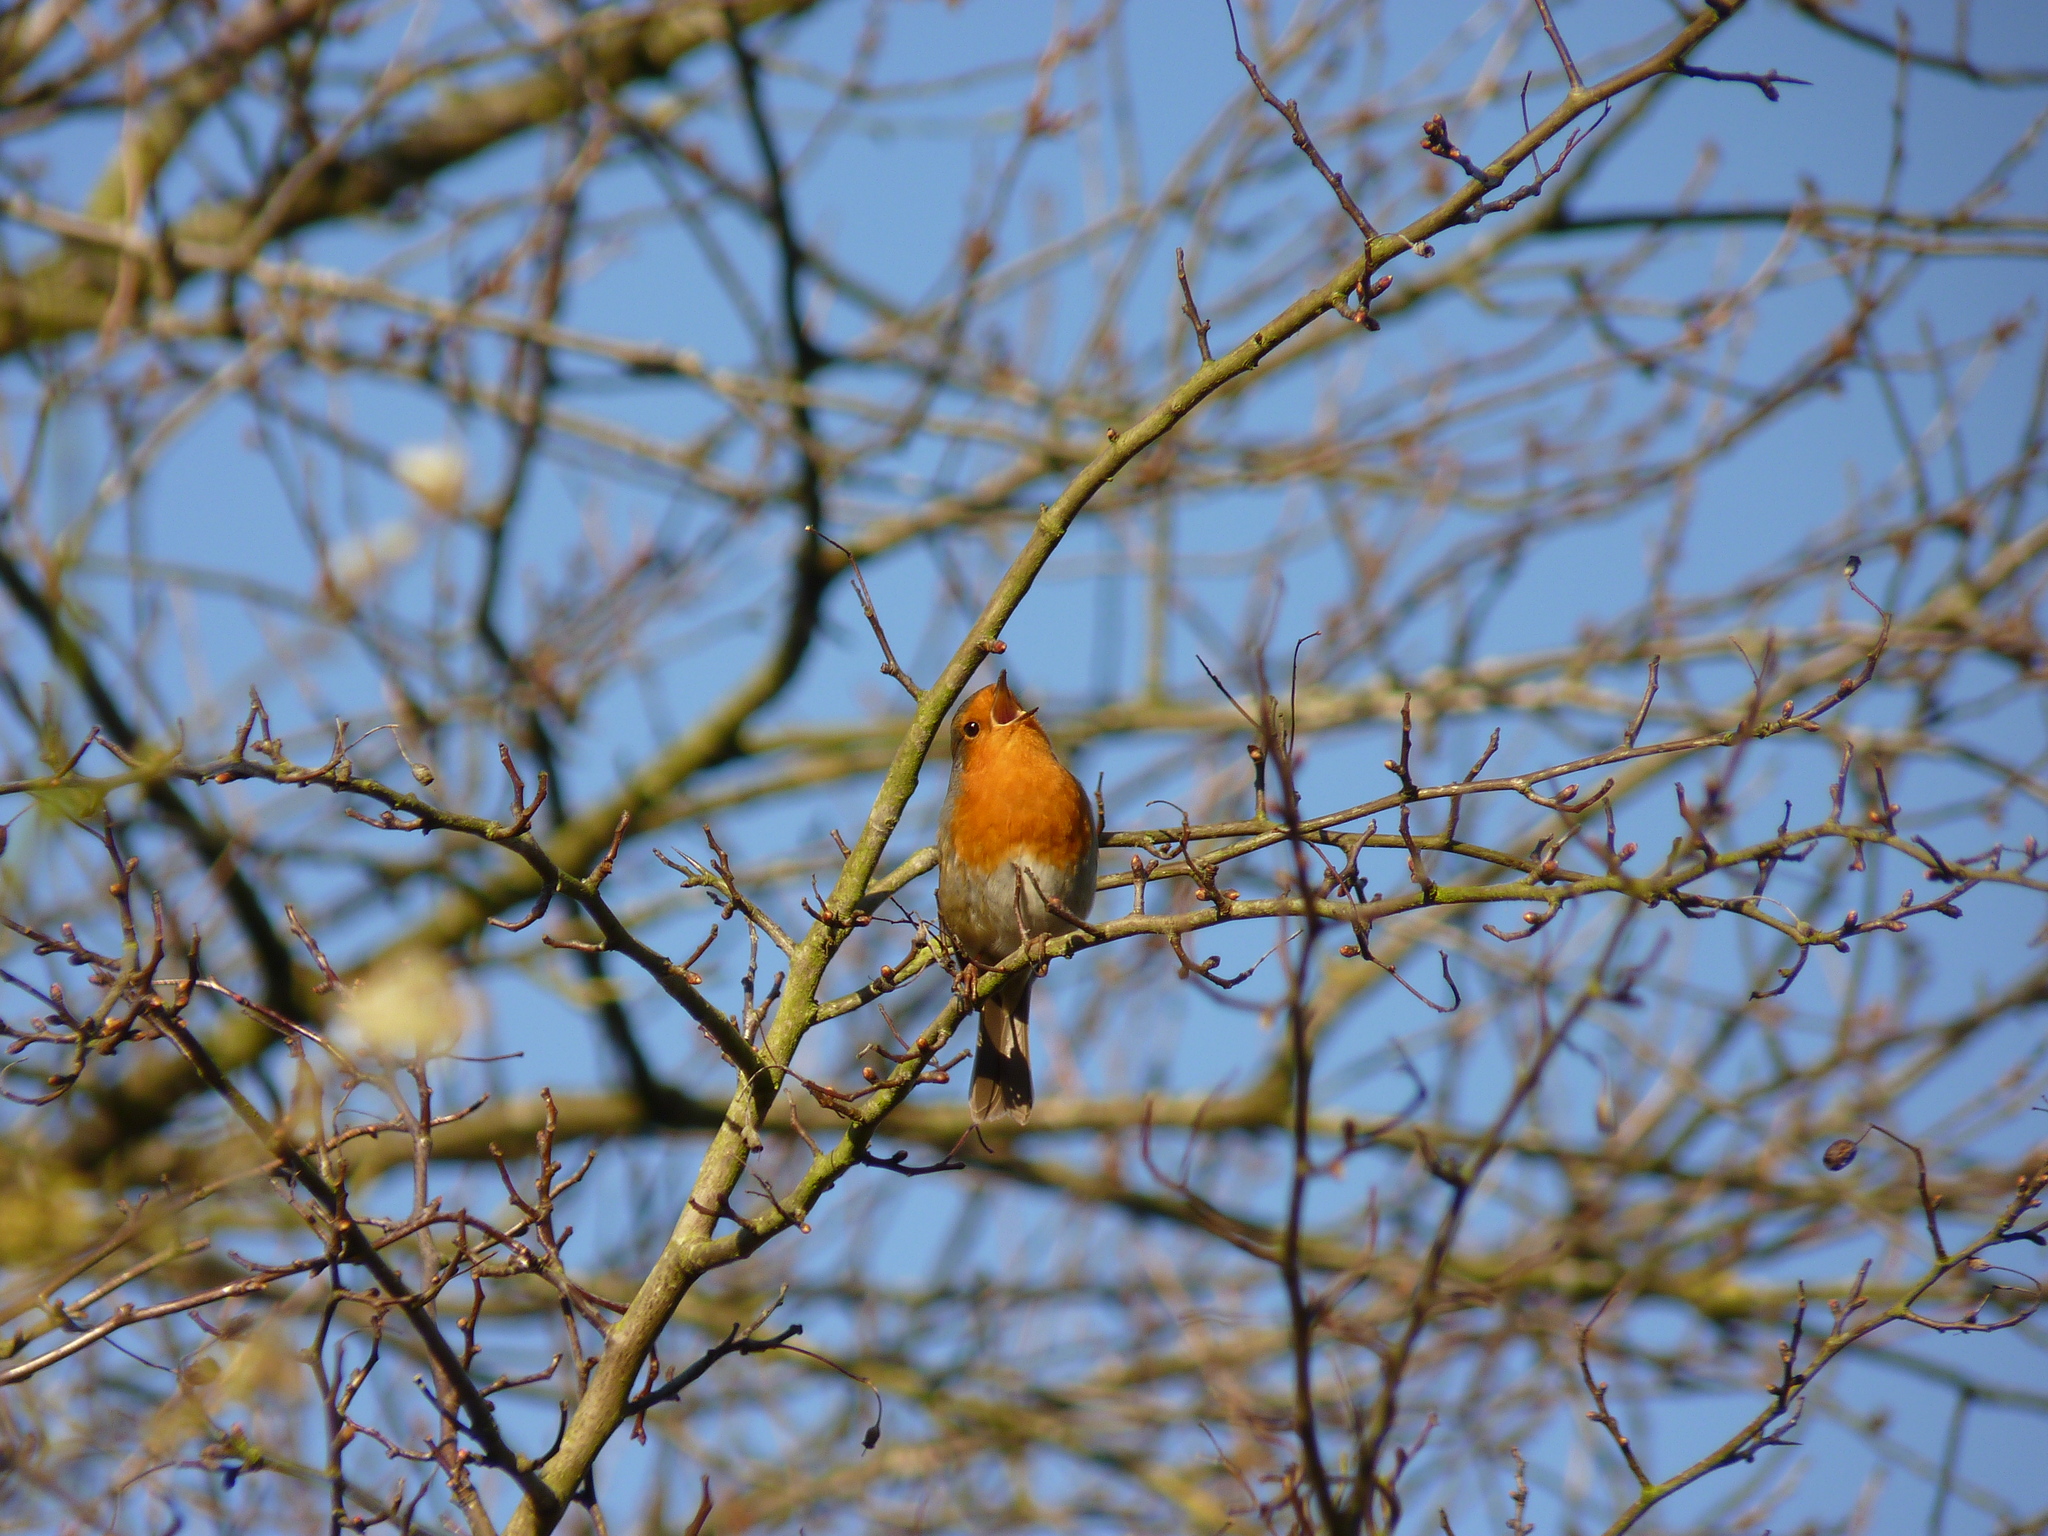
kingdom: Animalia
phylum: Chordata
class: Aves
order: Passeriformes
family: Muscicapidae
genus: Erithacus
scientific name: Erithacus rubecula
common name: European robin
